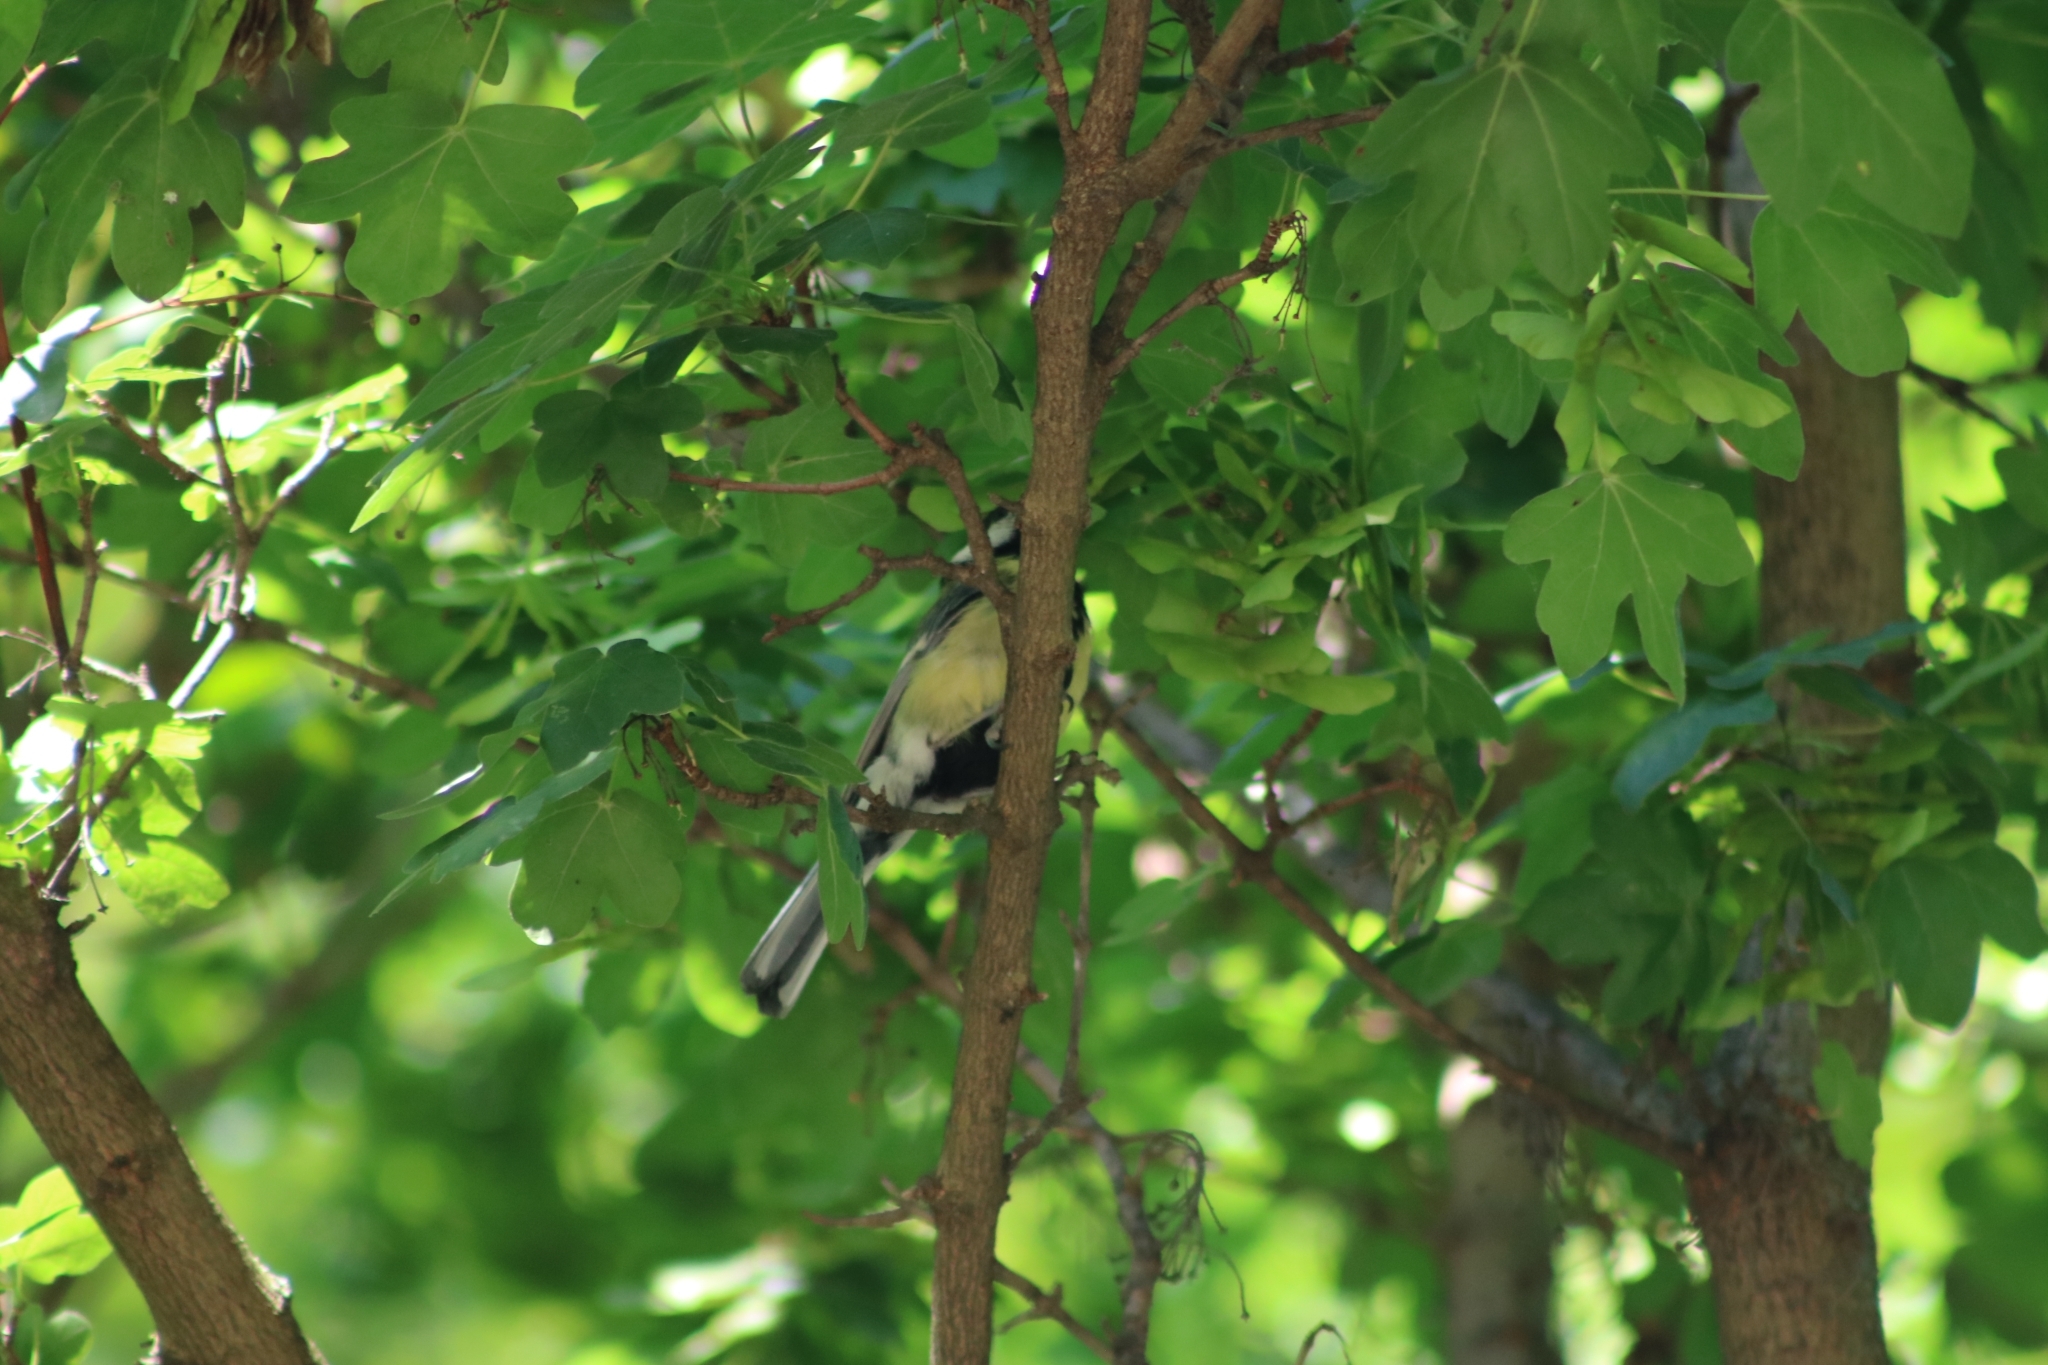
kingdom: Animalia
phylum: Chordata
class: Aves
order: Passeriformes
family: Paridae
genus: Parus
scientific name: Parus major
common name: Great tit
